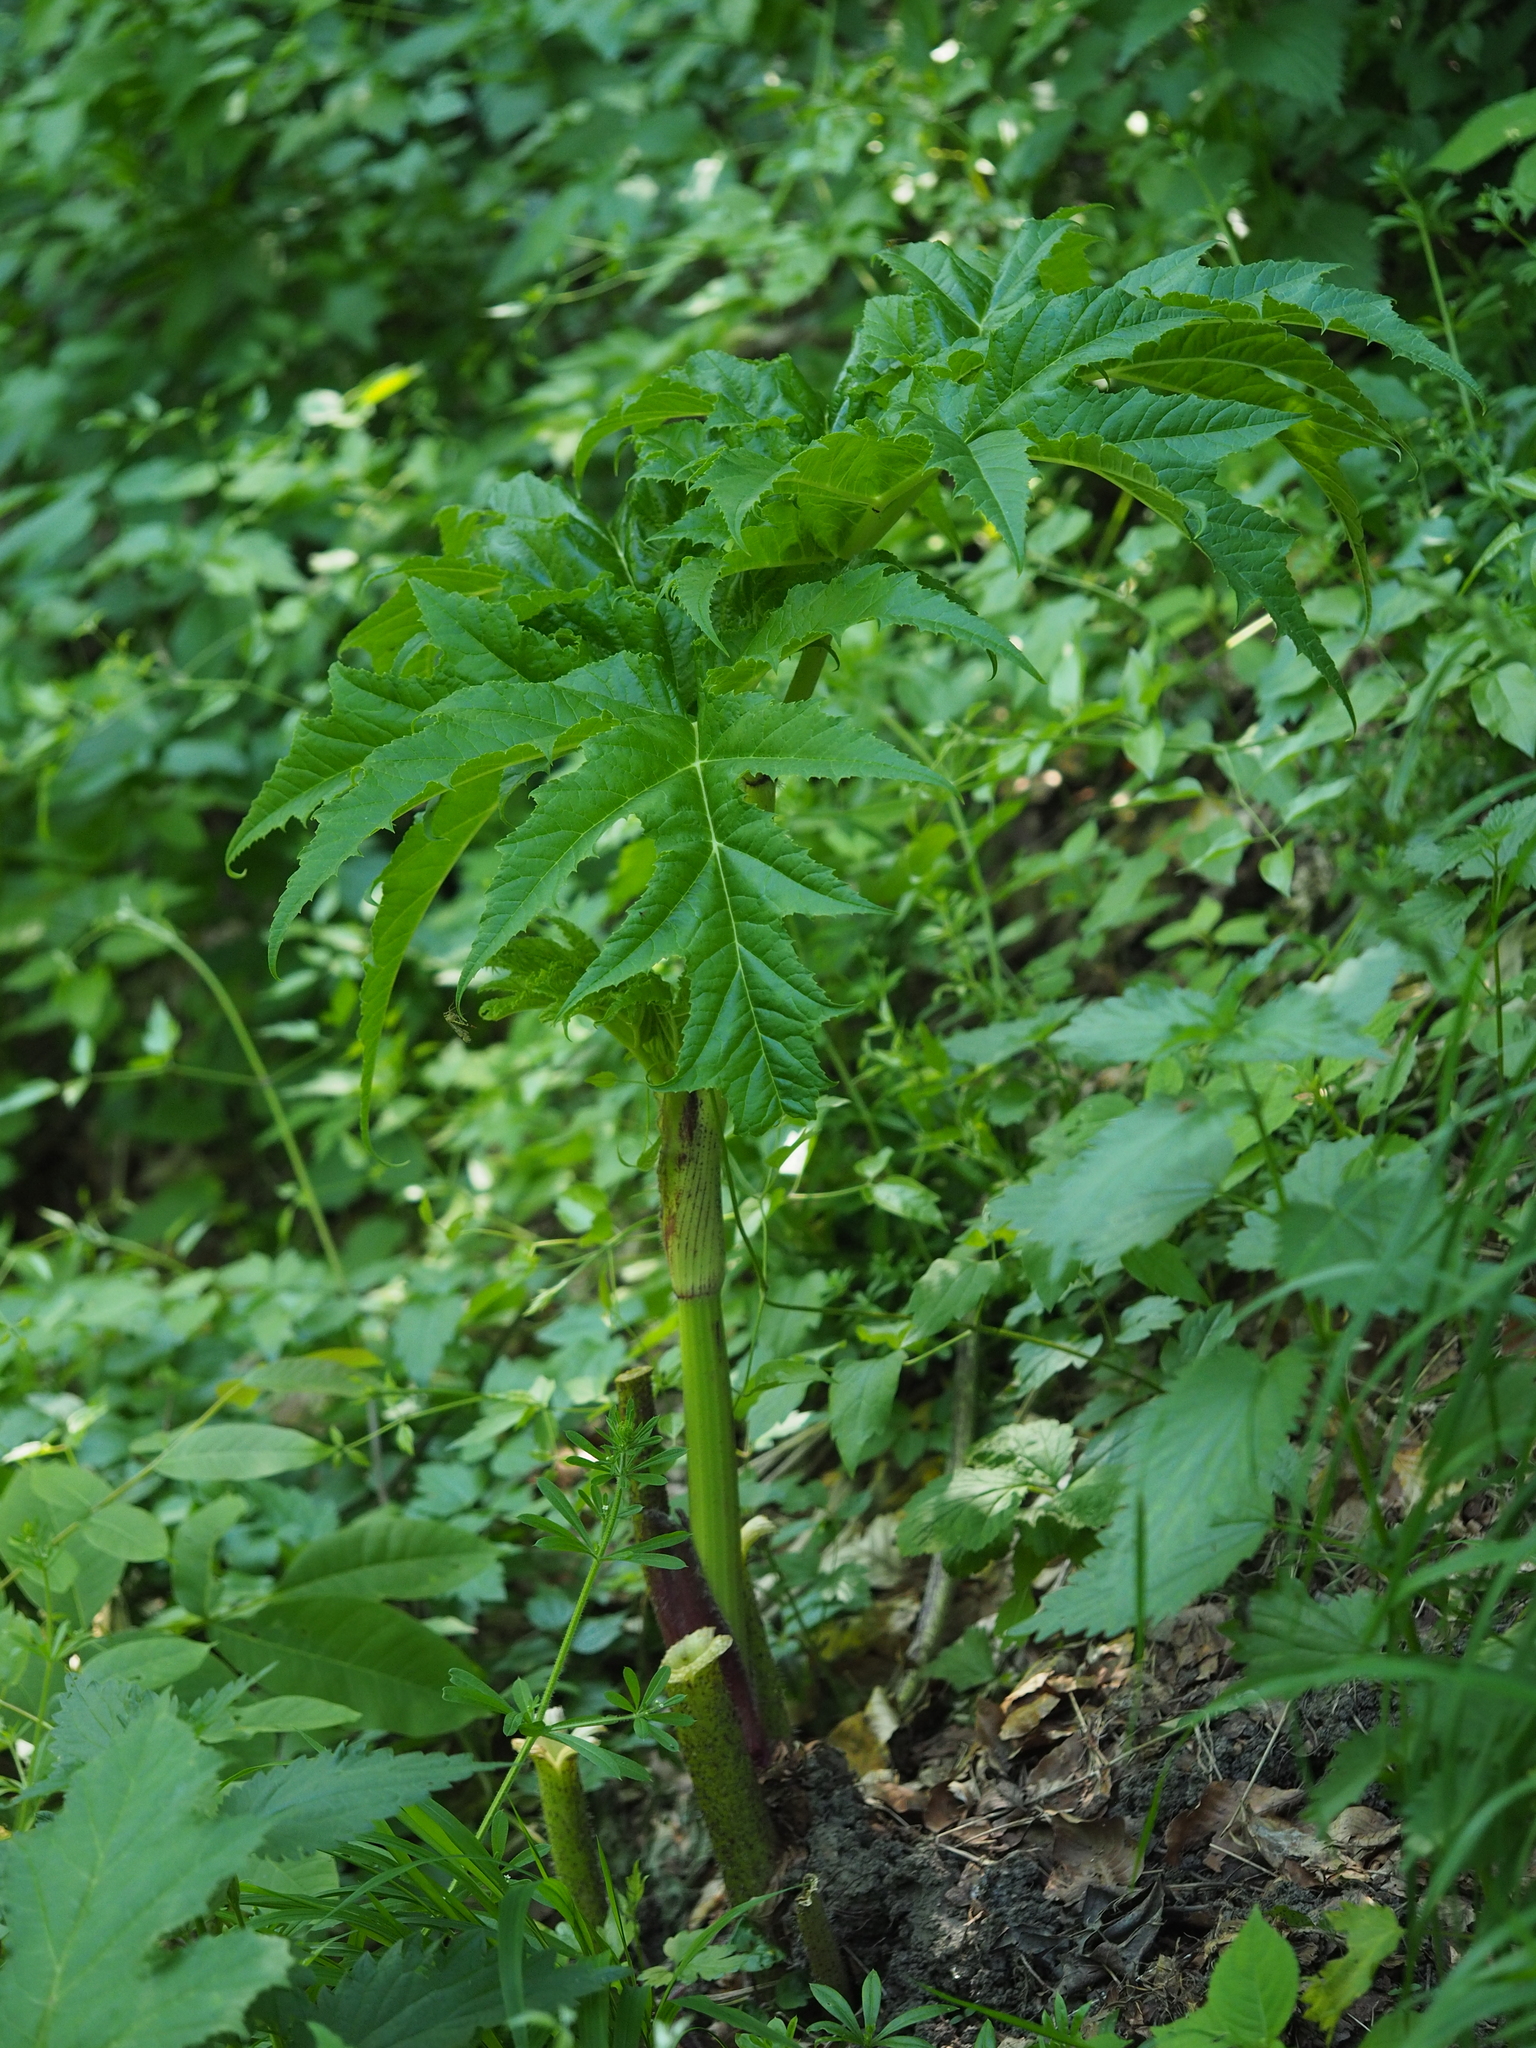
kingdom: Plantae
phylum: Tracheophyta
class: Magnoliopsida
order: Apiales
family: Apiaceae
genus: Heracleum
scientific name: Heracleum mantegazzianum
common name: Giant hogweed
